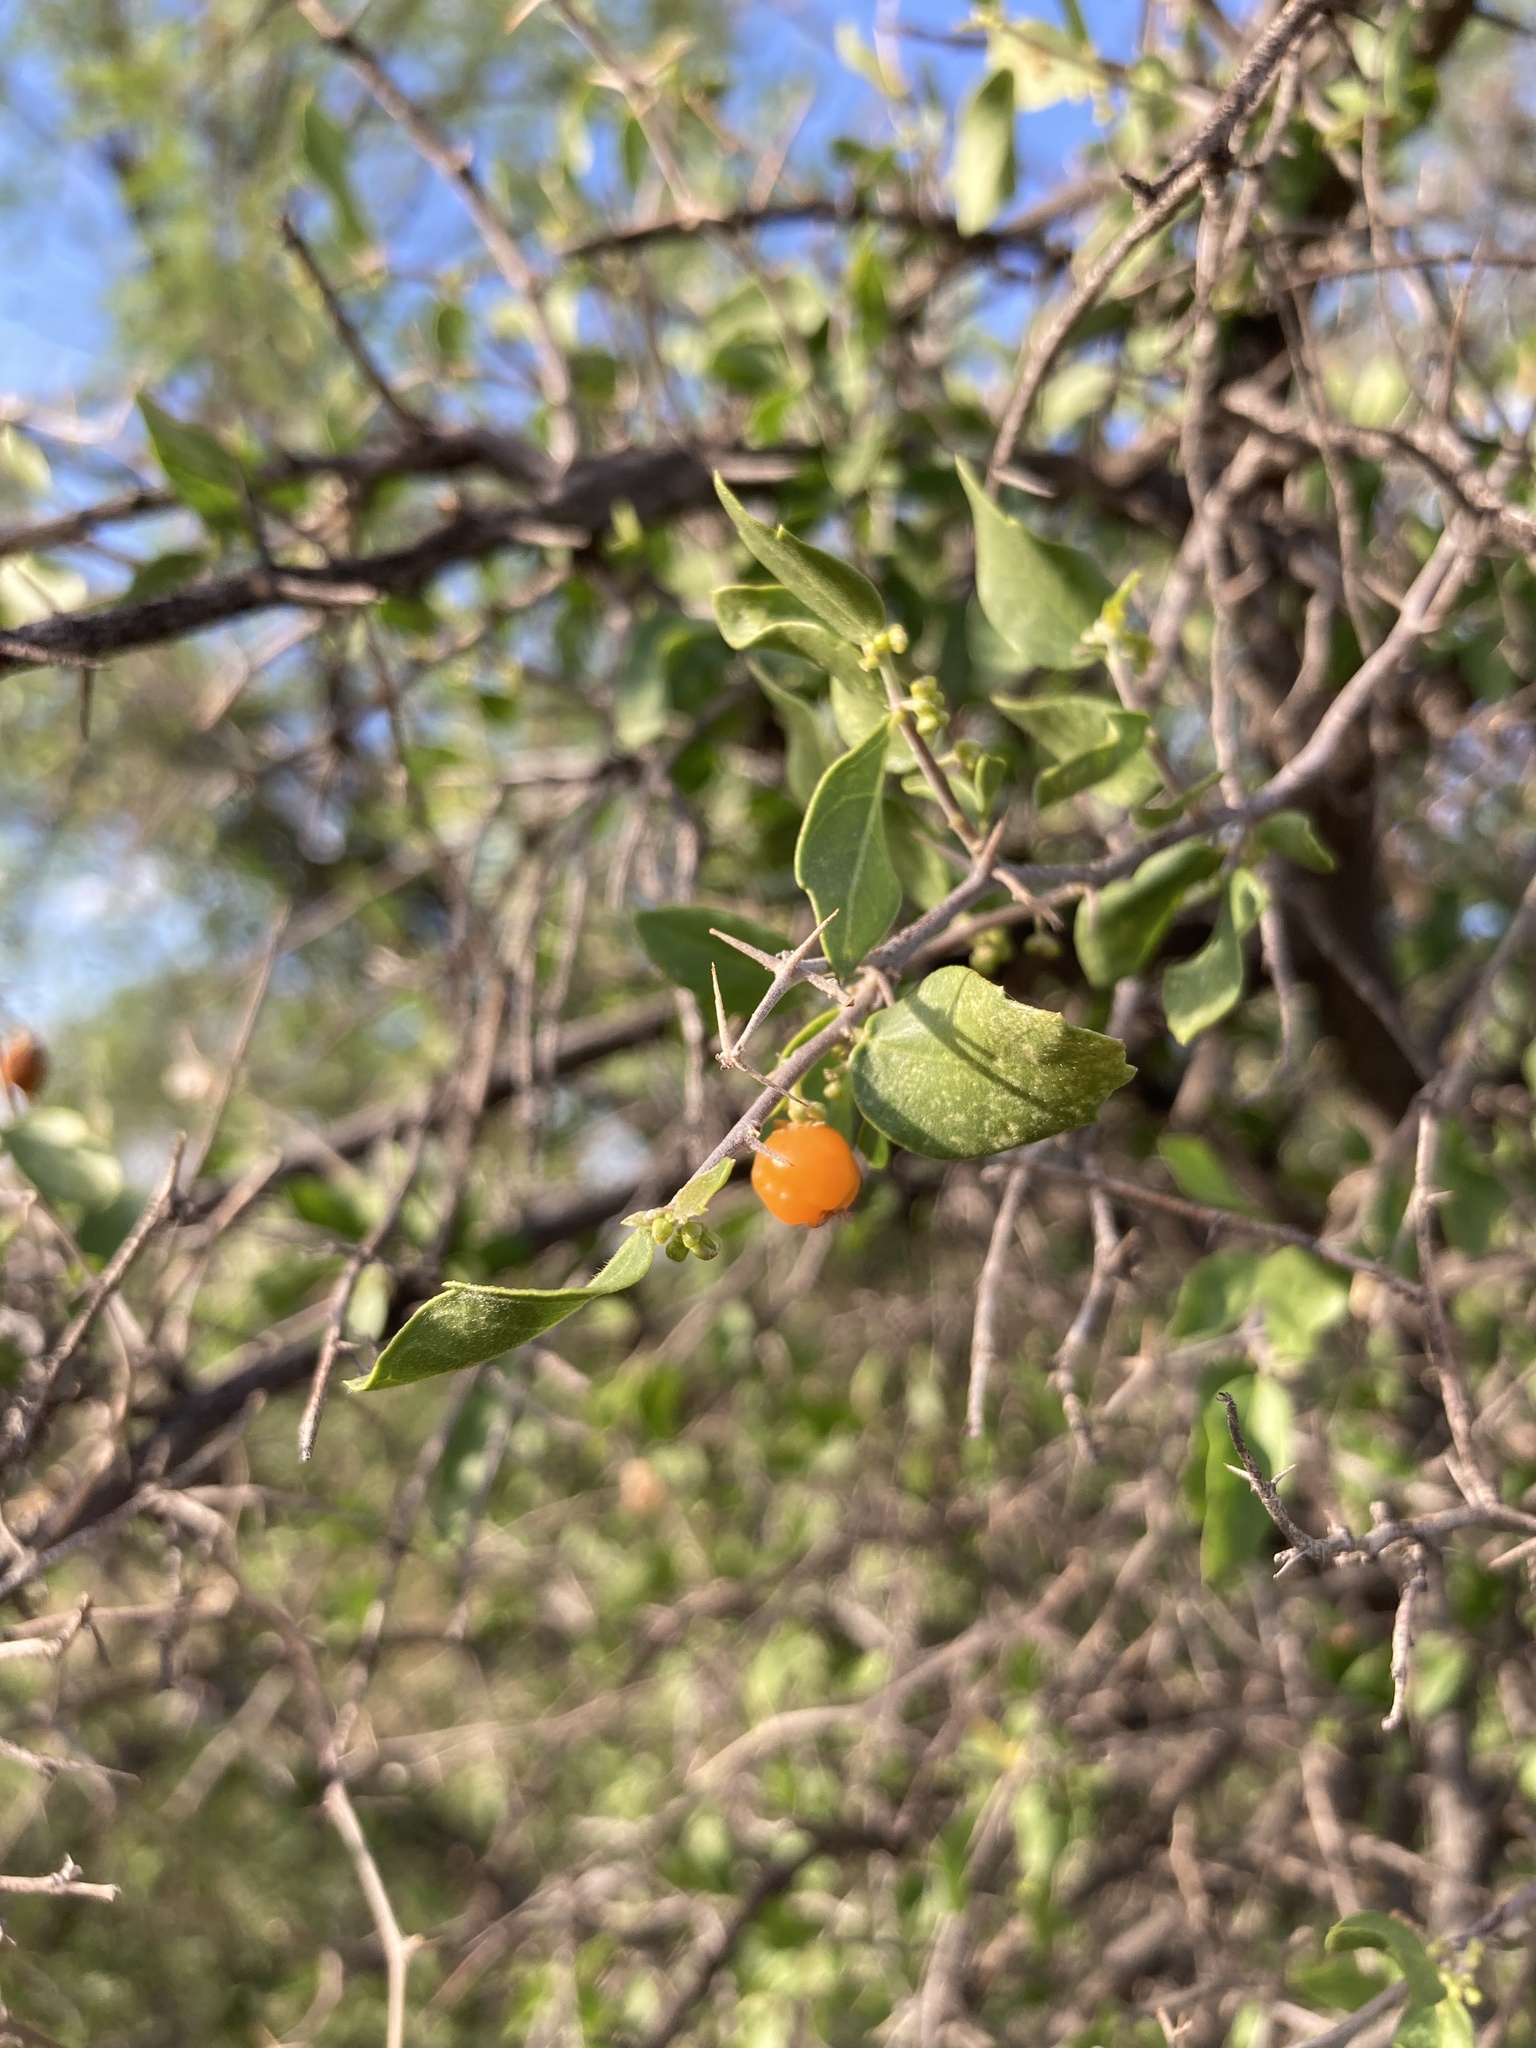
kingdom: Plantae
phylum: Tracheophyta
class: Magnoliopsida
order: Rosales
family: Cannabaceae
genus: Celtis
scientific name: Celtis pallida
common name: Desert hackberry
